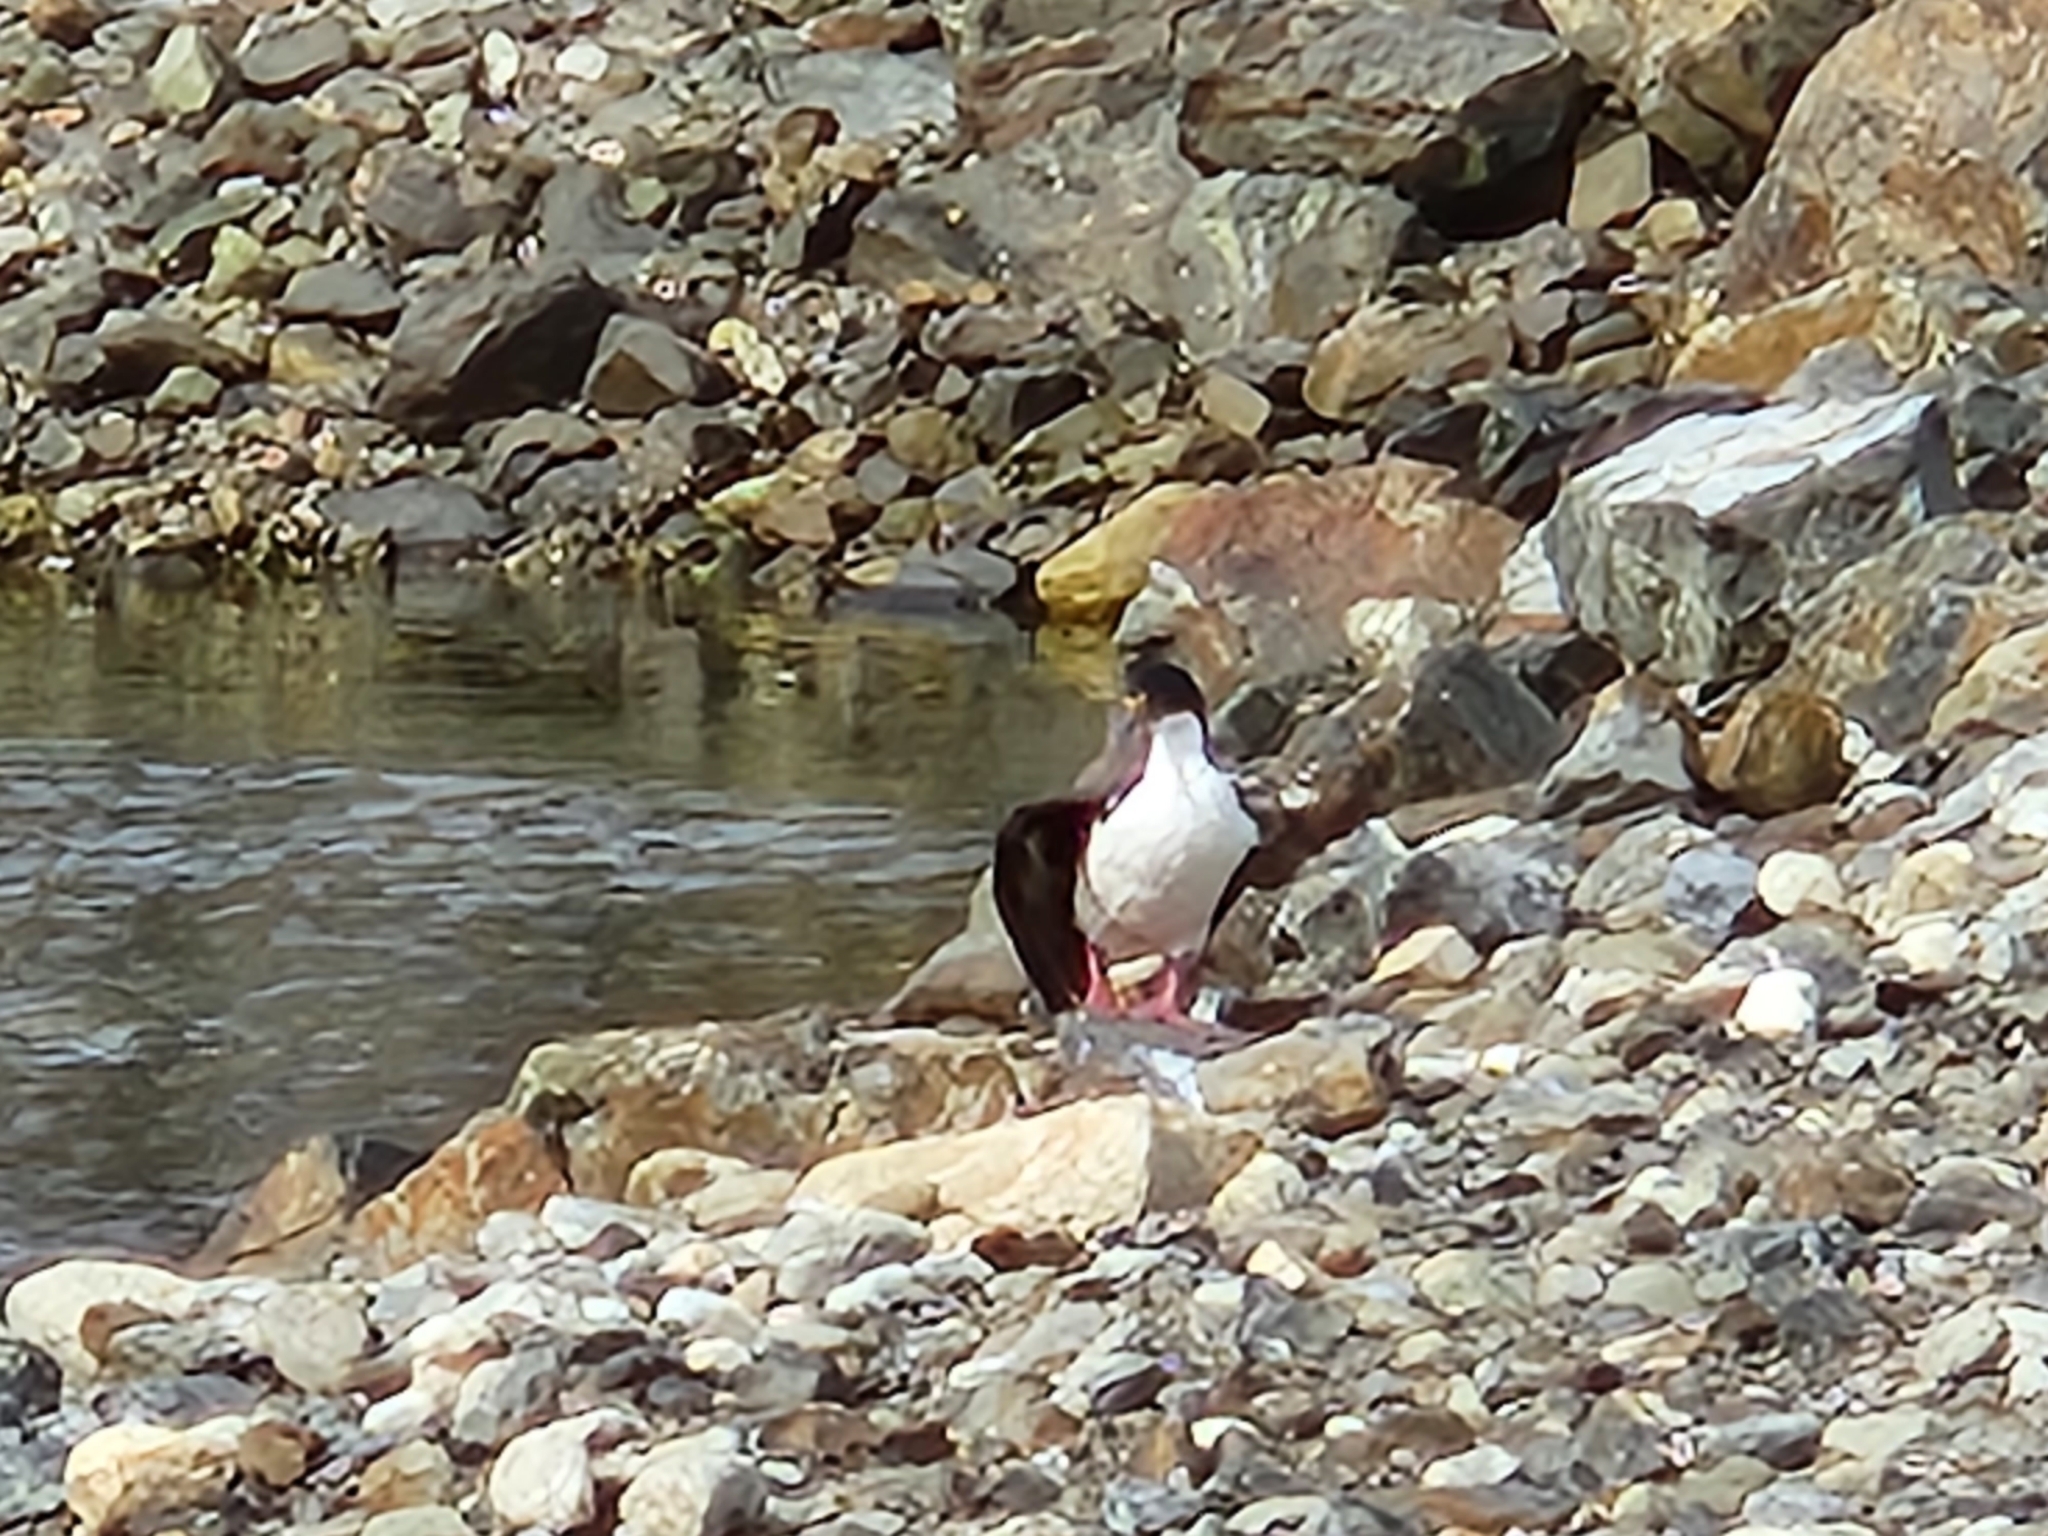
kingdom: Animalia
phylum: Chordata
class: Aves
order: Suliformes
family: Phalacrocoracidae
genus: Leucocarbo
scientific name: Leucocarbo atriceps
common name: Imperial shag
